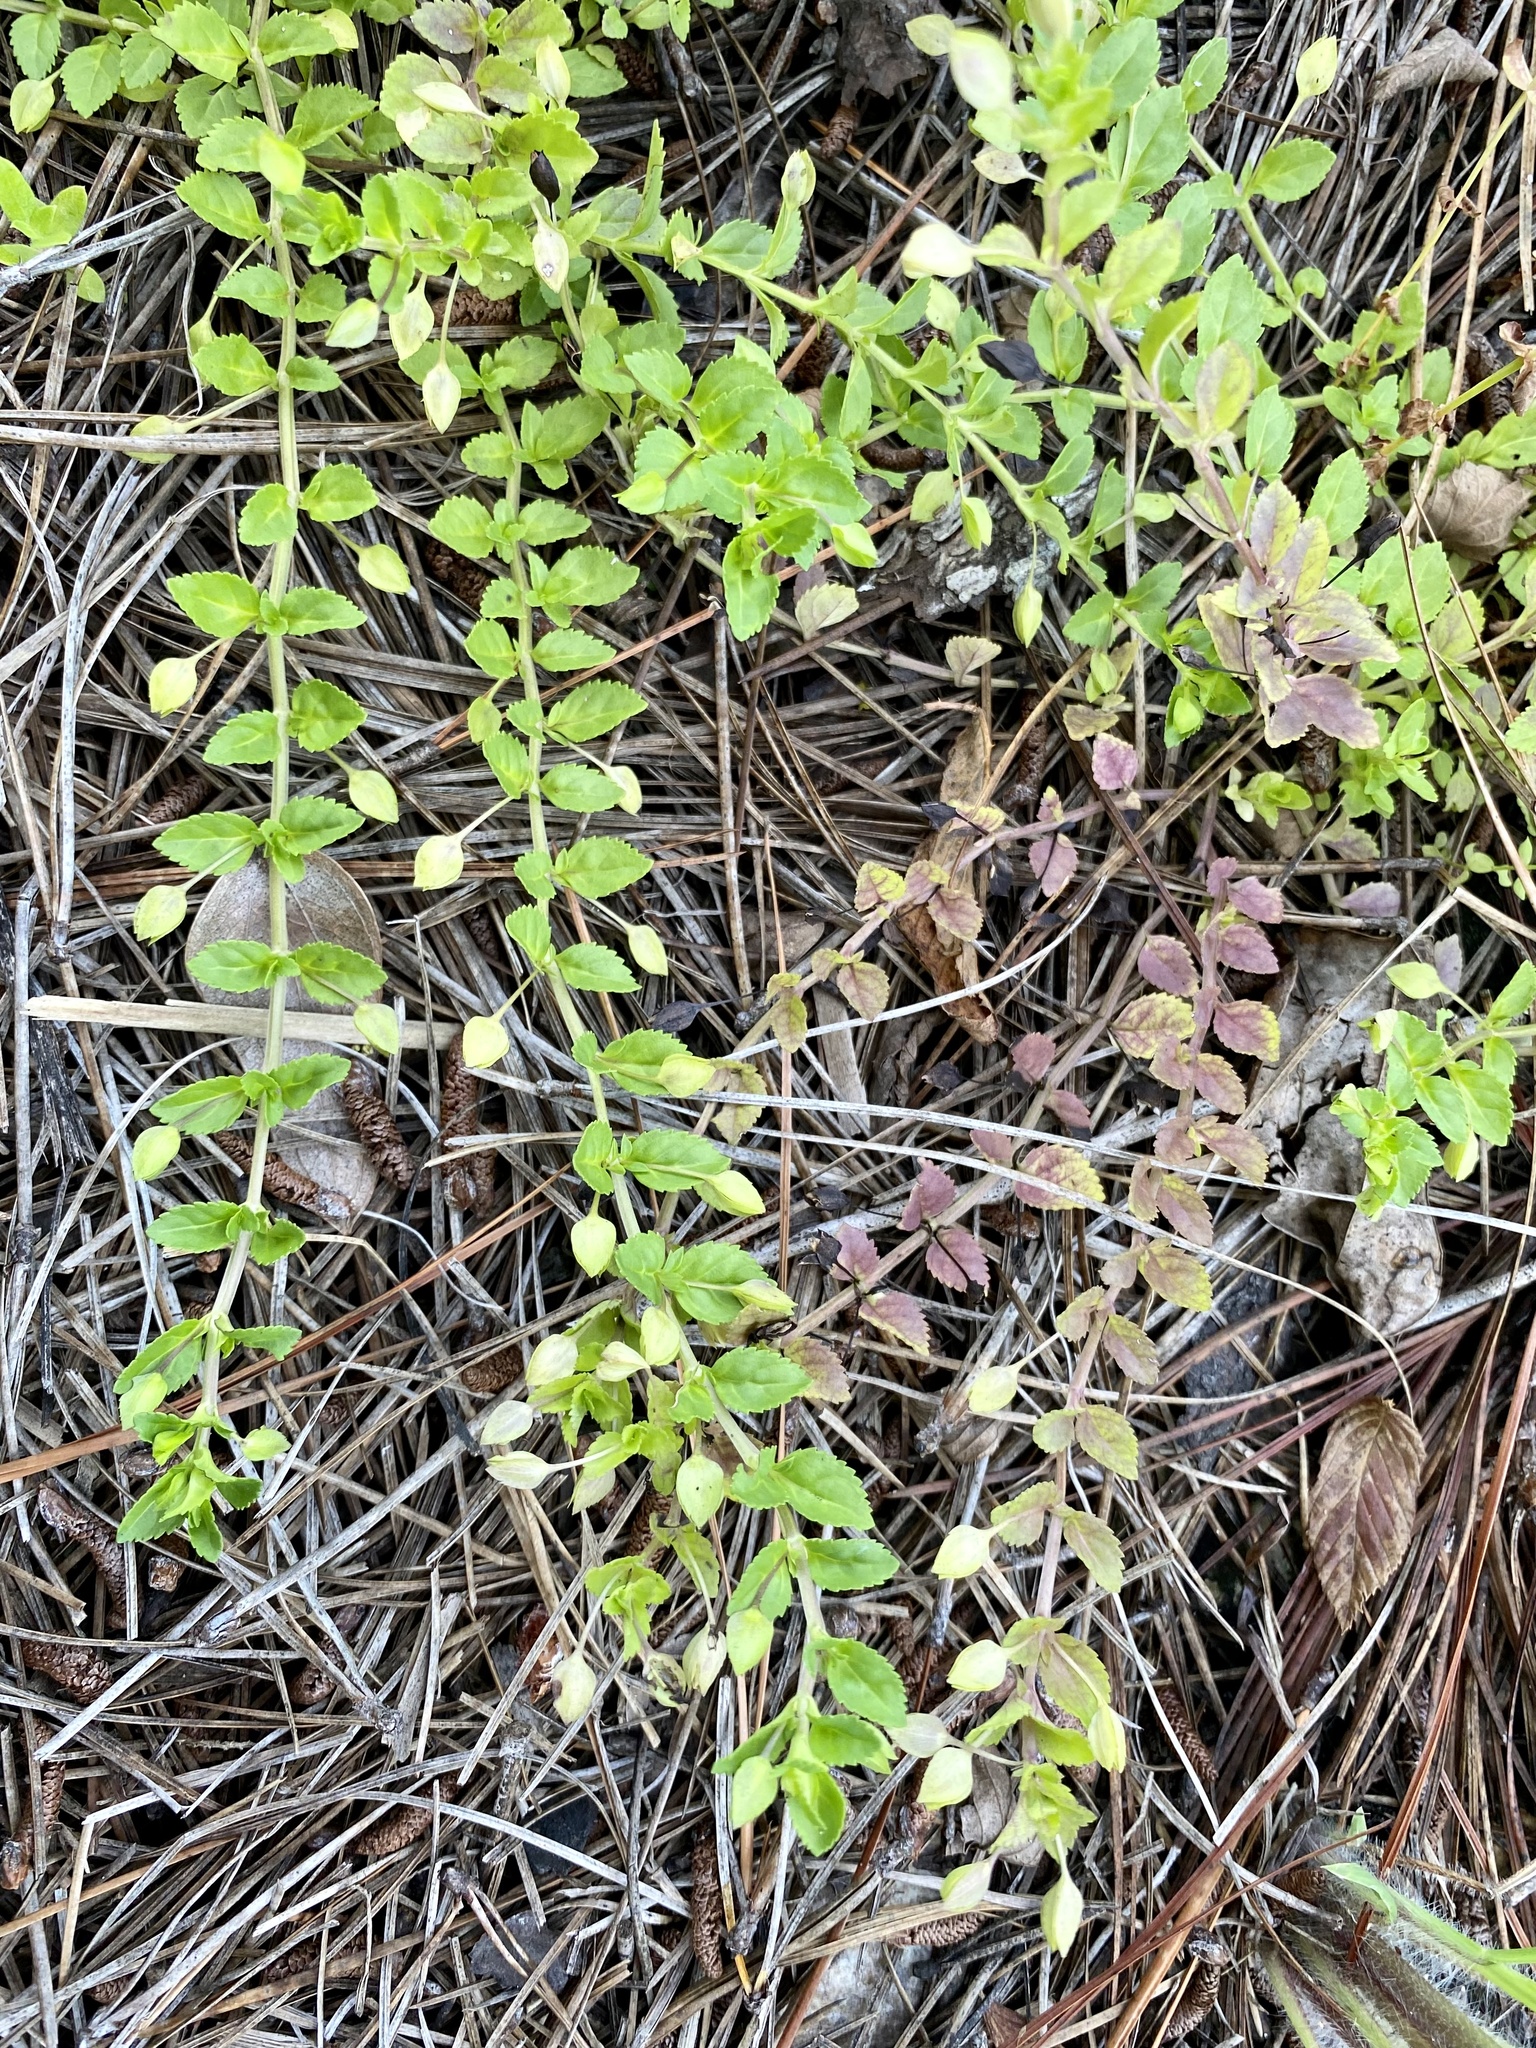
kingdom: Plantae
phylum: Tracheophyta
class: Magnoliopsida
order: Lamiales
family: Plantaginaceae
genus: Mecardonia
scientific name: Mecardonia procumbens
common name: Baby jump-up
